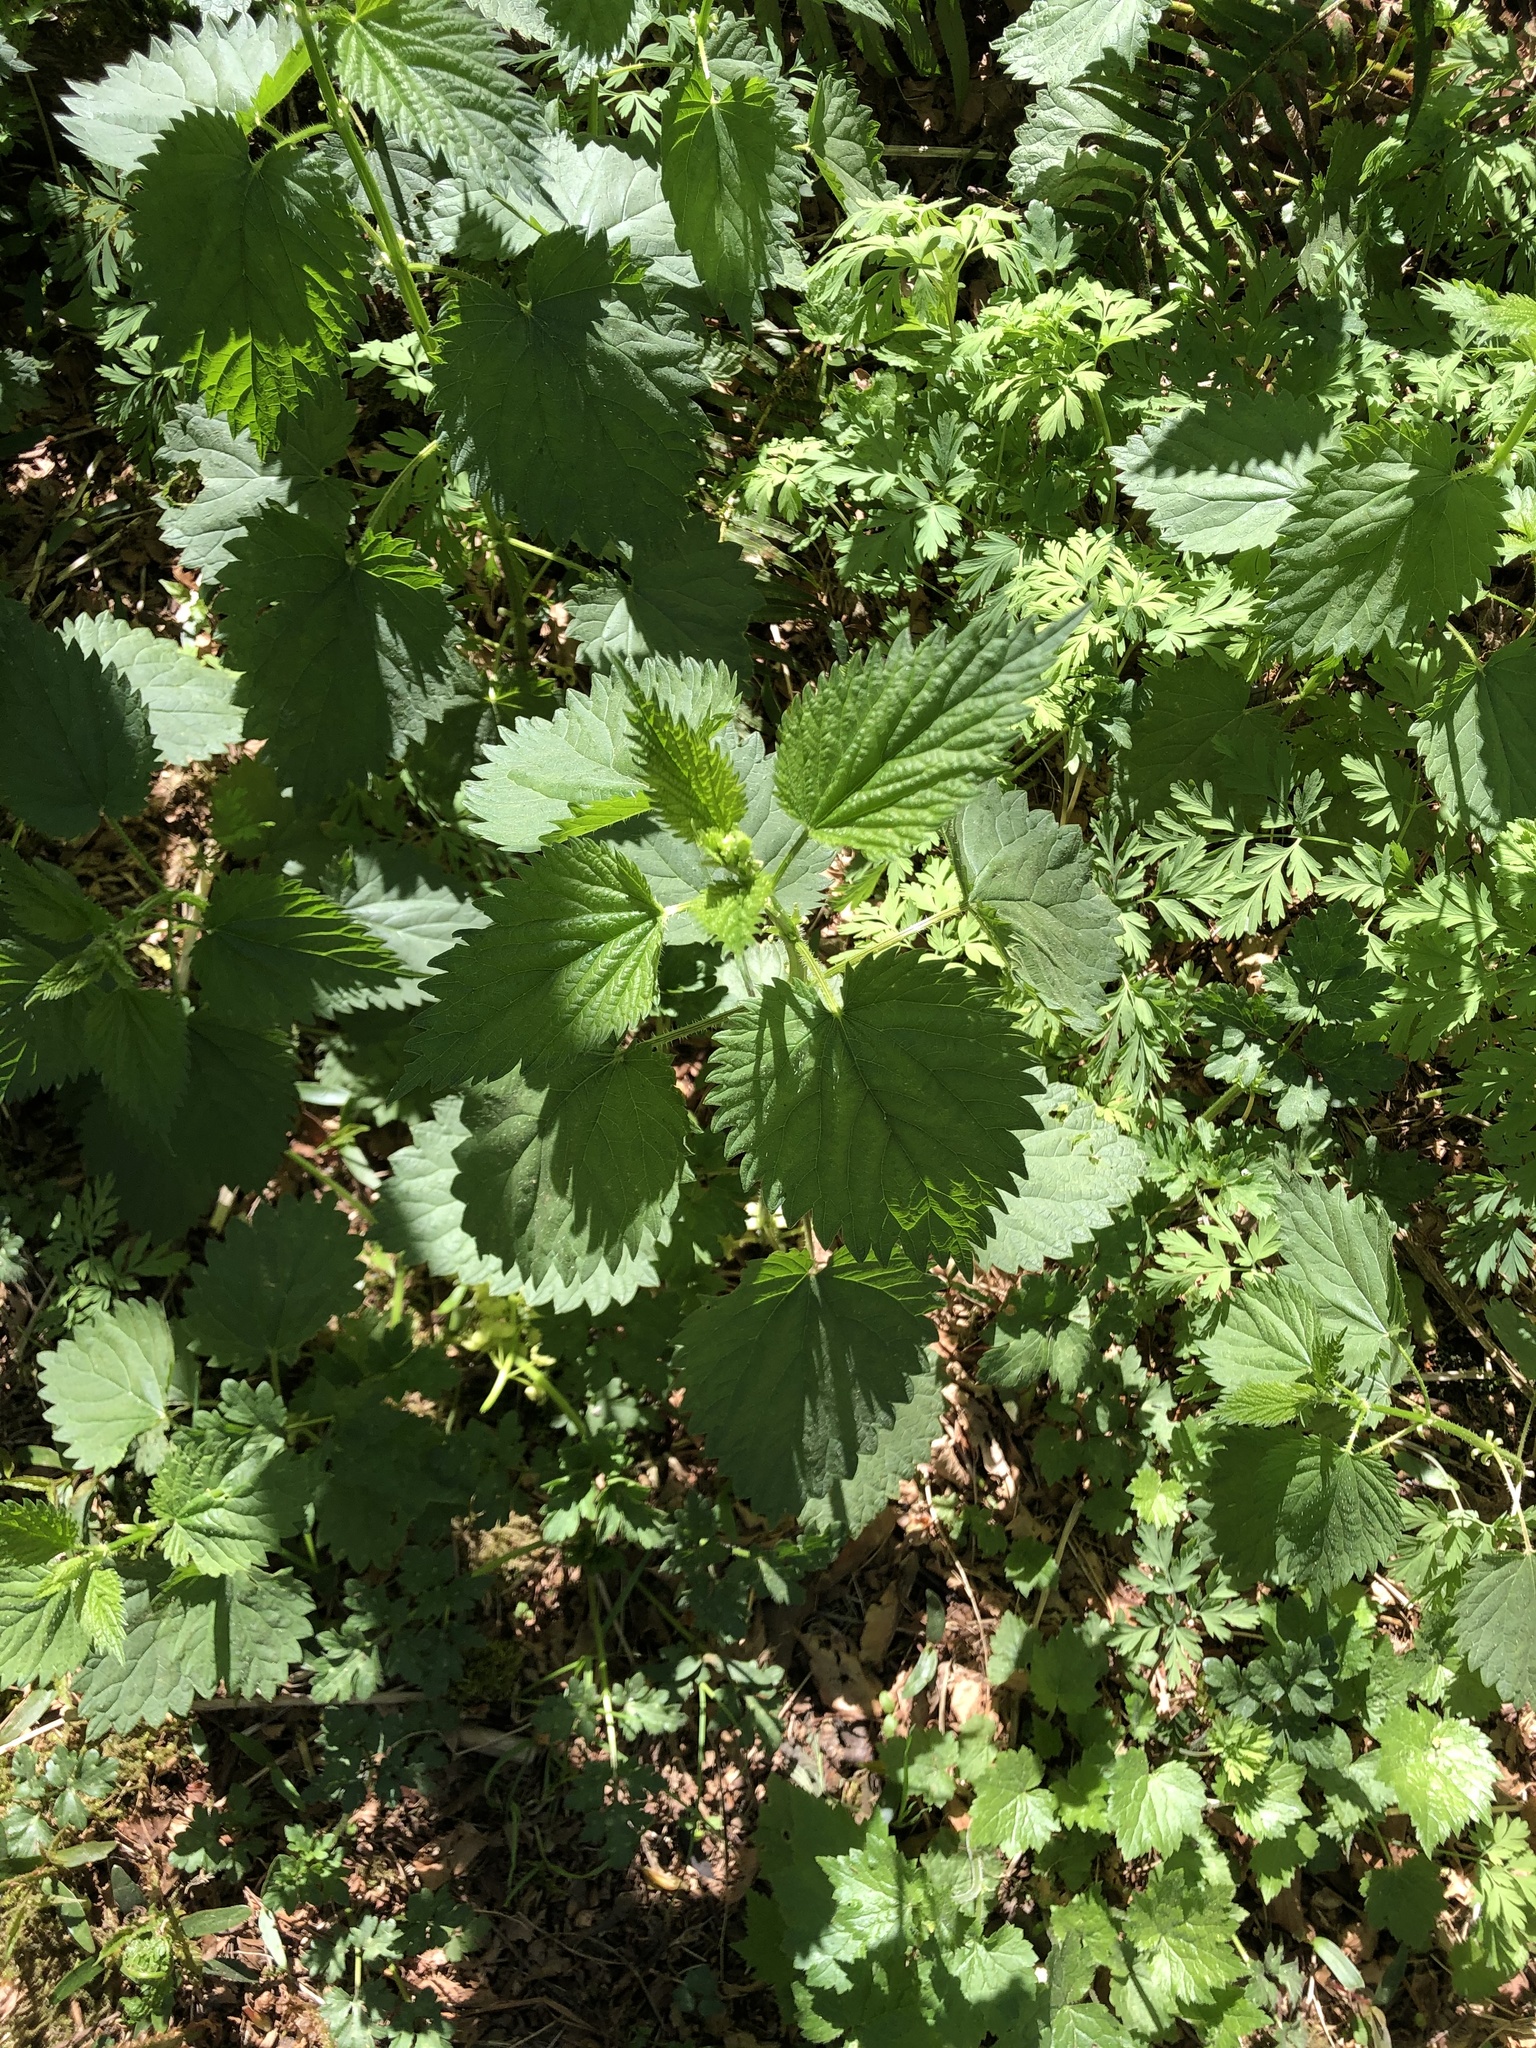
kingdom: Plantae
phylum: Tracheophyta
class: Magnoliopsida
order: Rosales
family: Urticaceae
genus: Urtica
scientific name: Urtica dioica
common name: Common nettle
